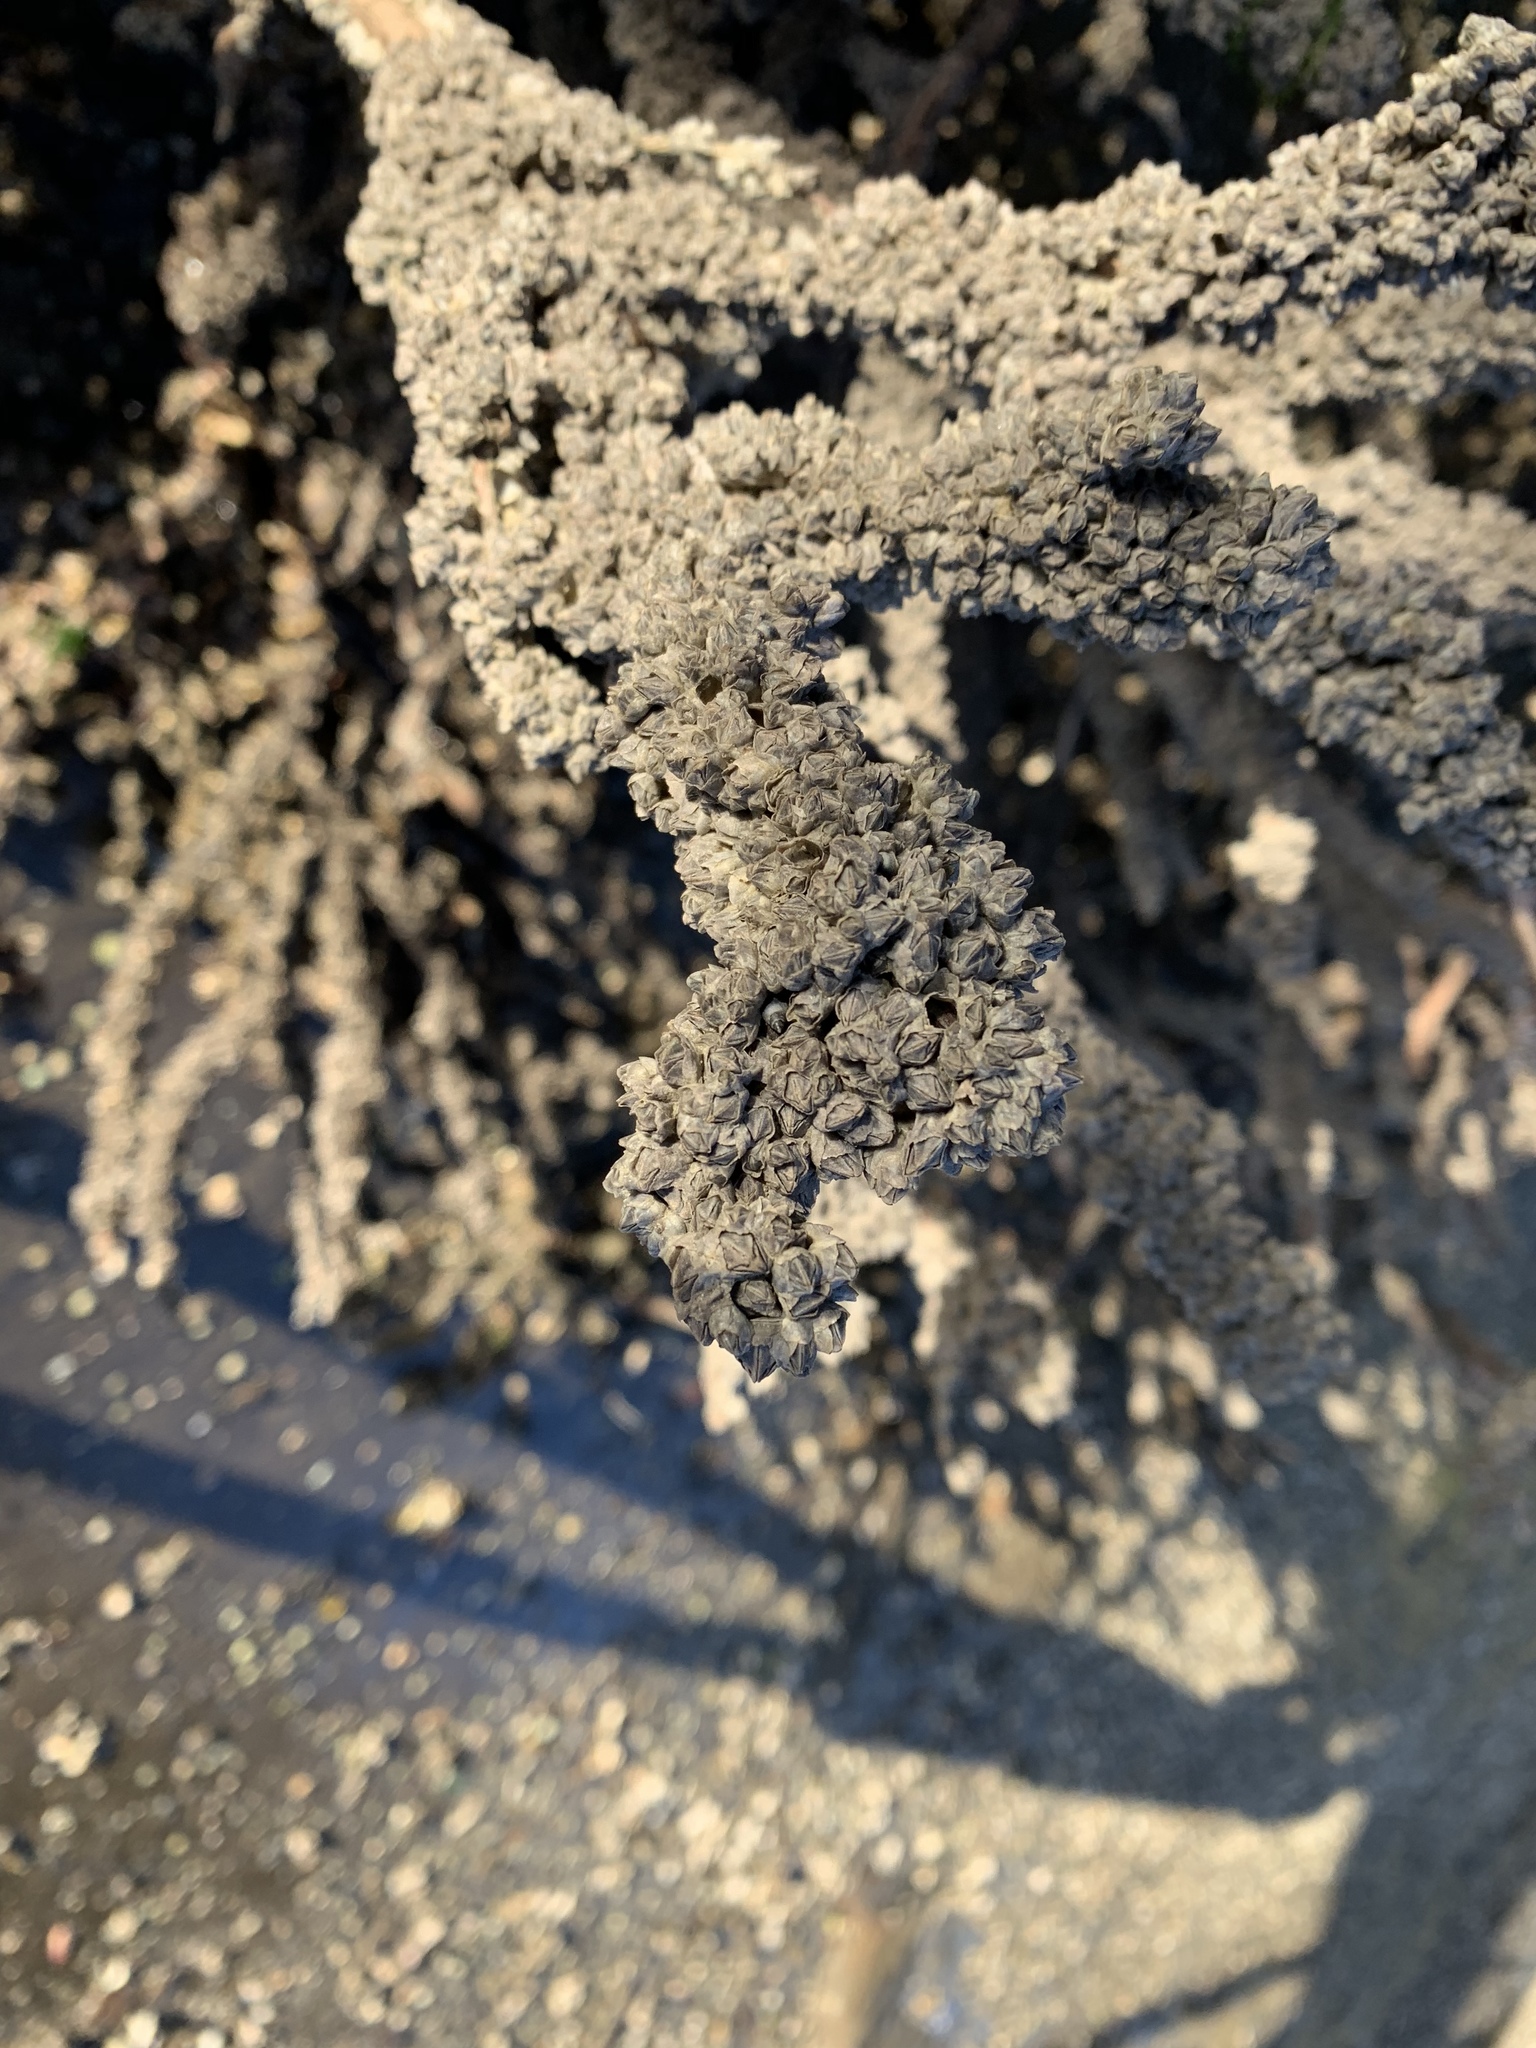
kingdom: Animalia
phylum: Arthropoda
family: Elminiidae
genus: Austrominius
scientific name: Austrominius modestus
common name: Australasian barnacle
